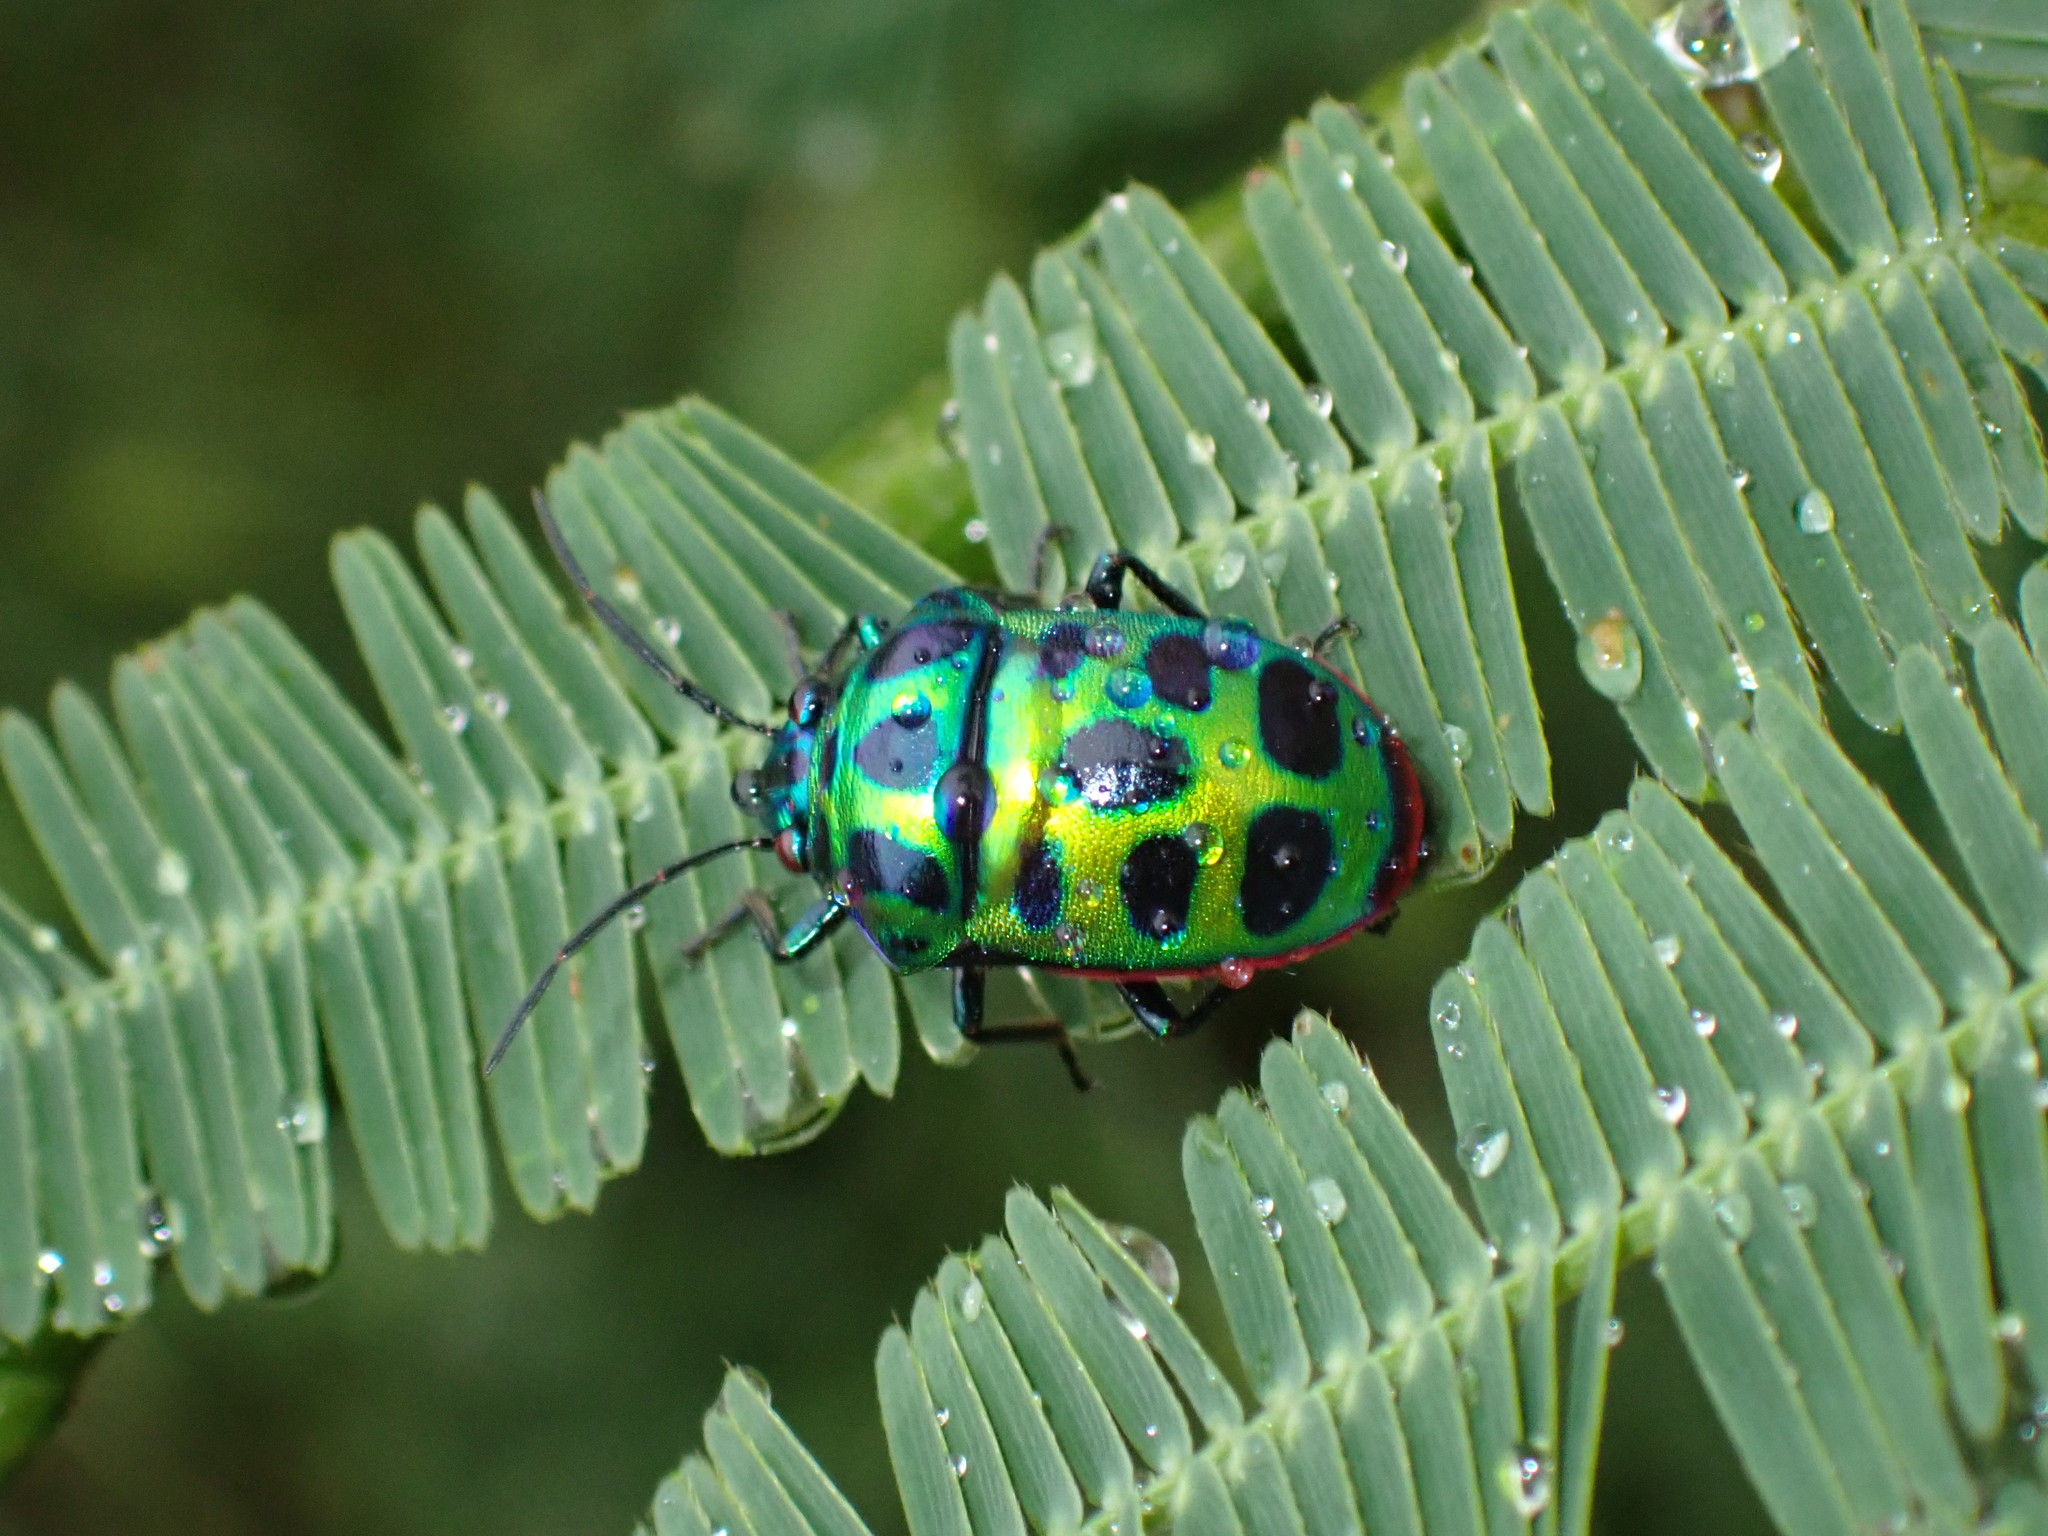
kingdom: Animalia
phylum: Arthropoda
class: Insecta
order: Hemiptera
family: Scutelleridae
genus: Chrysocoris
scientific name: Chrysocoris stollii
